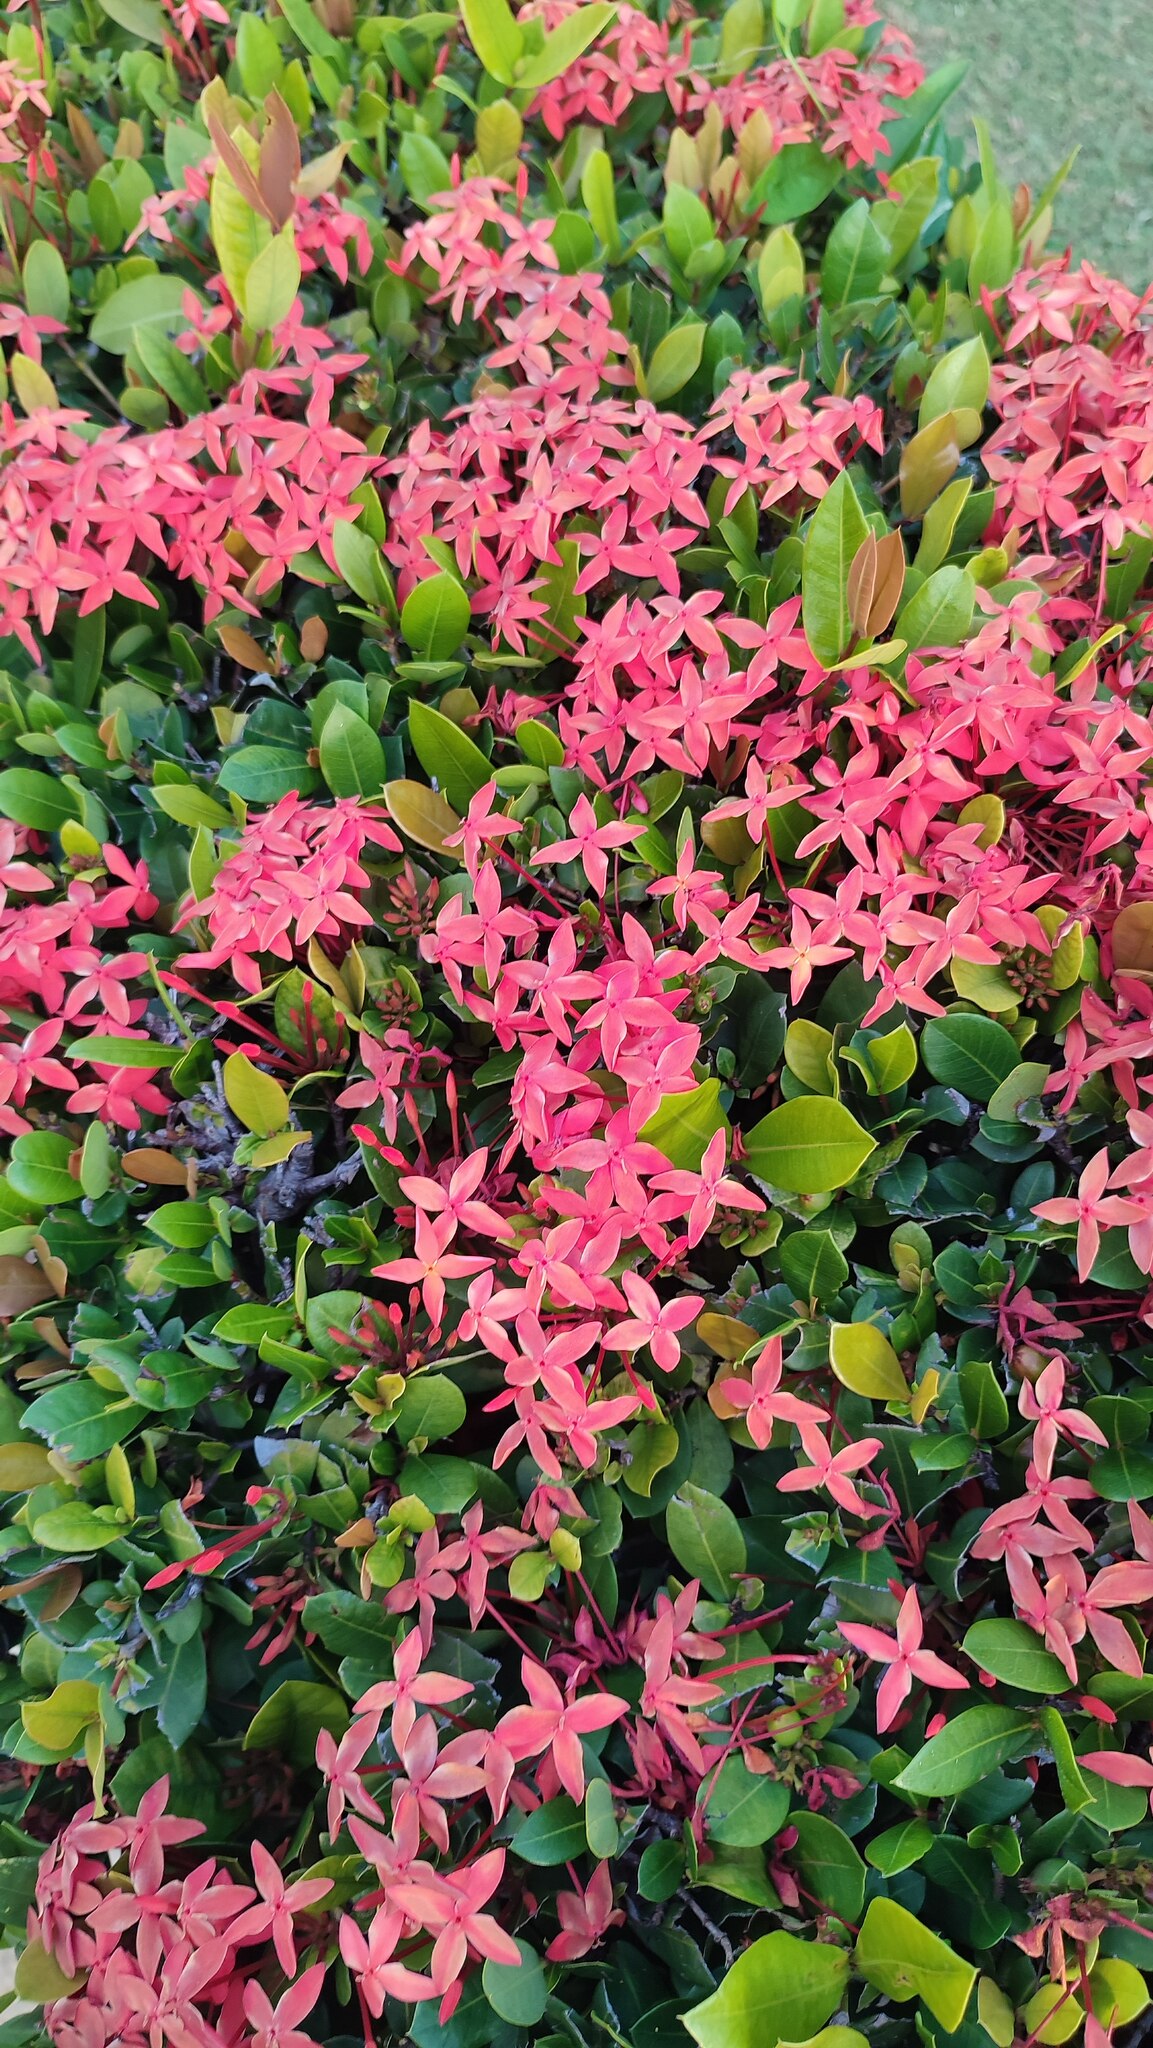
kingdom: Plantae
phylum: Tracheophyta
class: Magnoliopsida
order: Gentianales
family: Rubiaceae
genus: Ixora
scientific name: Ixora coccinea
